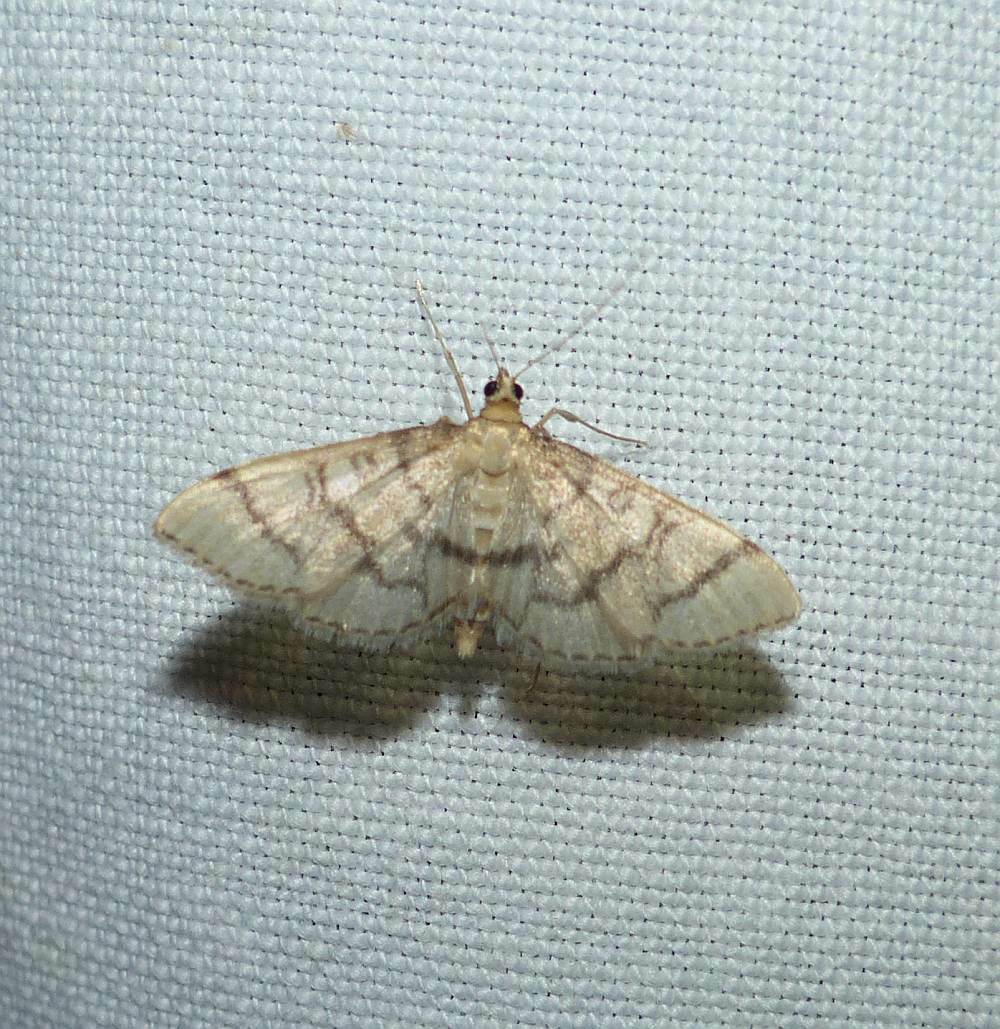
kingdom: Animalia
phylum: Arthropoda
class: Insecta
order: Lepidoptera
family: Crambidae
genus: Lamprosema
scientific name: Lamprosema Blepharomastix ranalis
